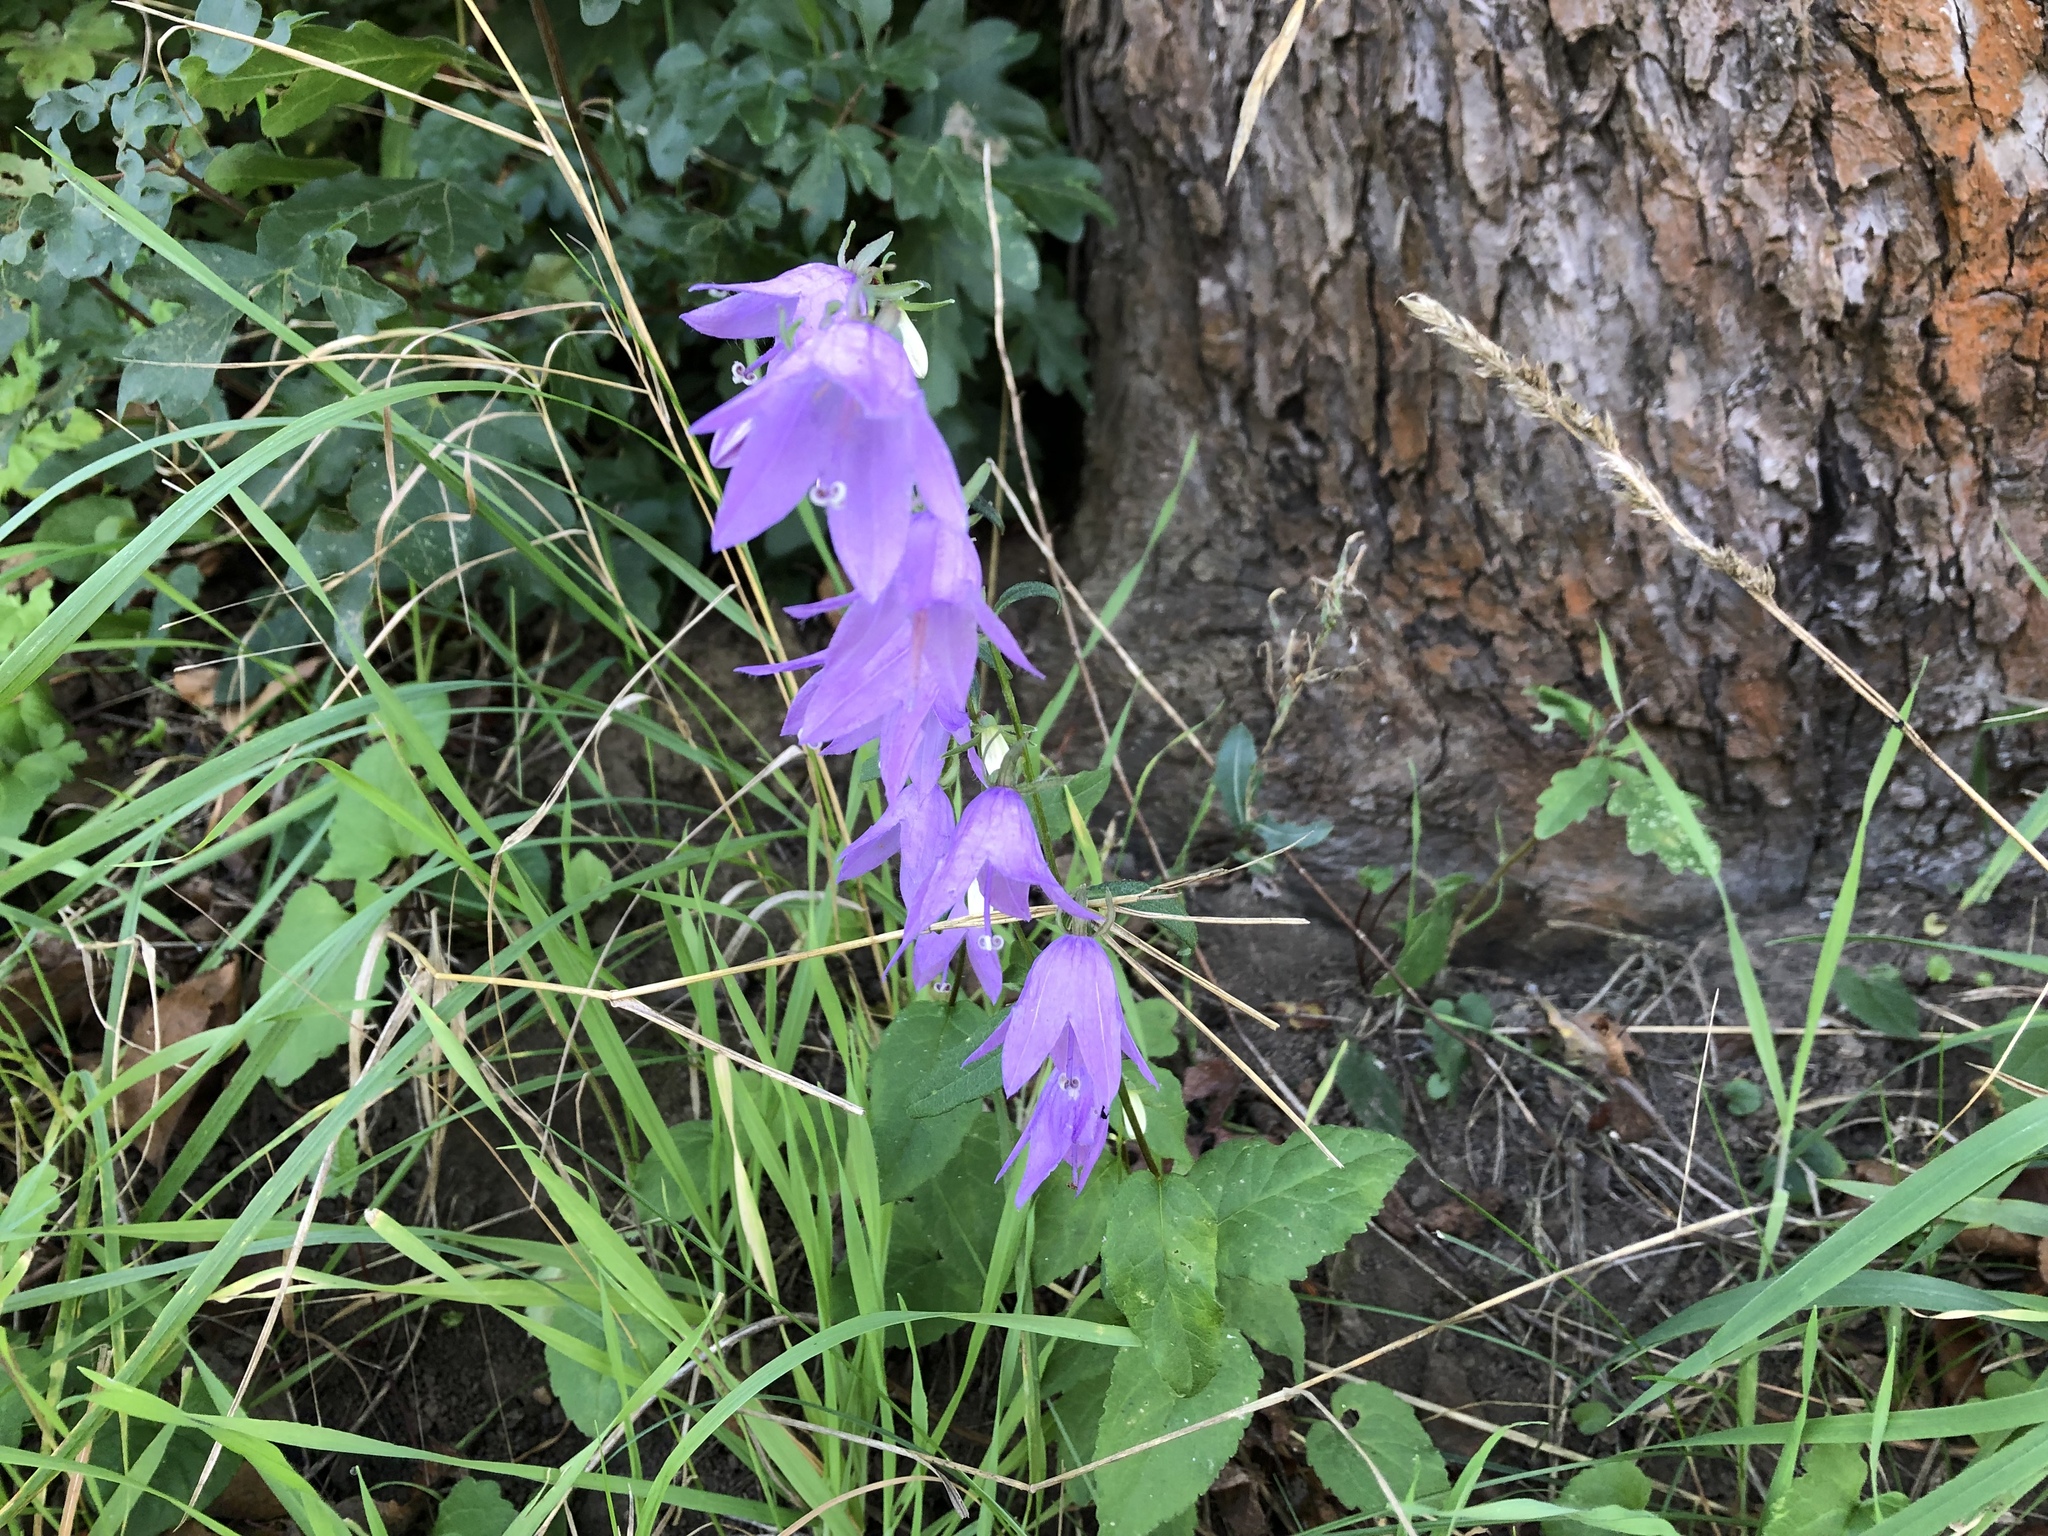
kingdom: Plantae
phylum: Tracheophyta
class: Magnoliopsida
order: Asterales
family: Campanulaceae
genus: Campanula
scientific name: Campanula rapunculoides
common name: Creeping bellflower
